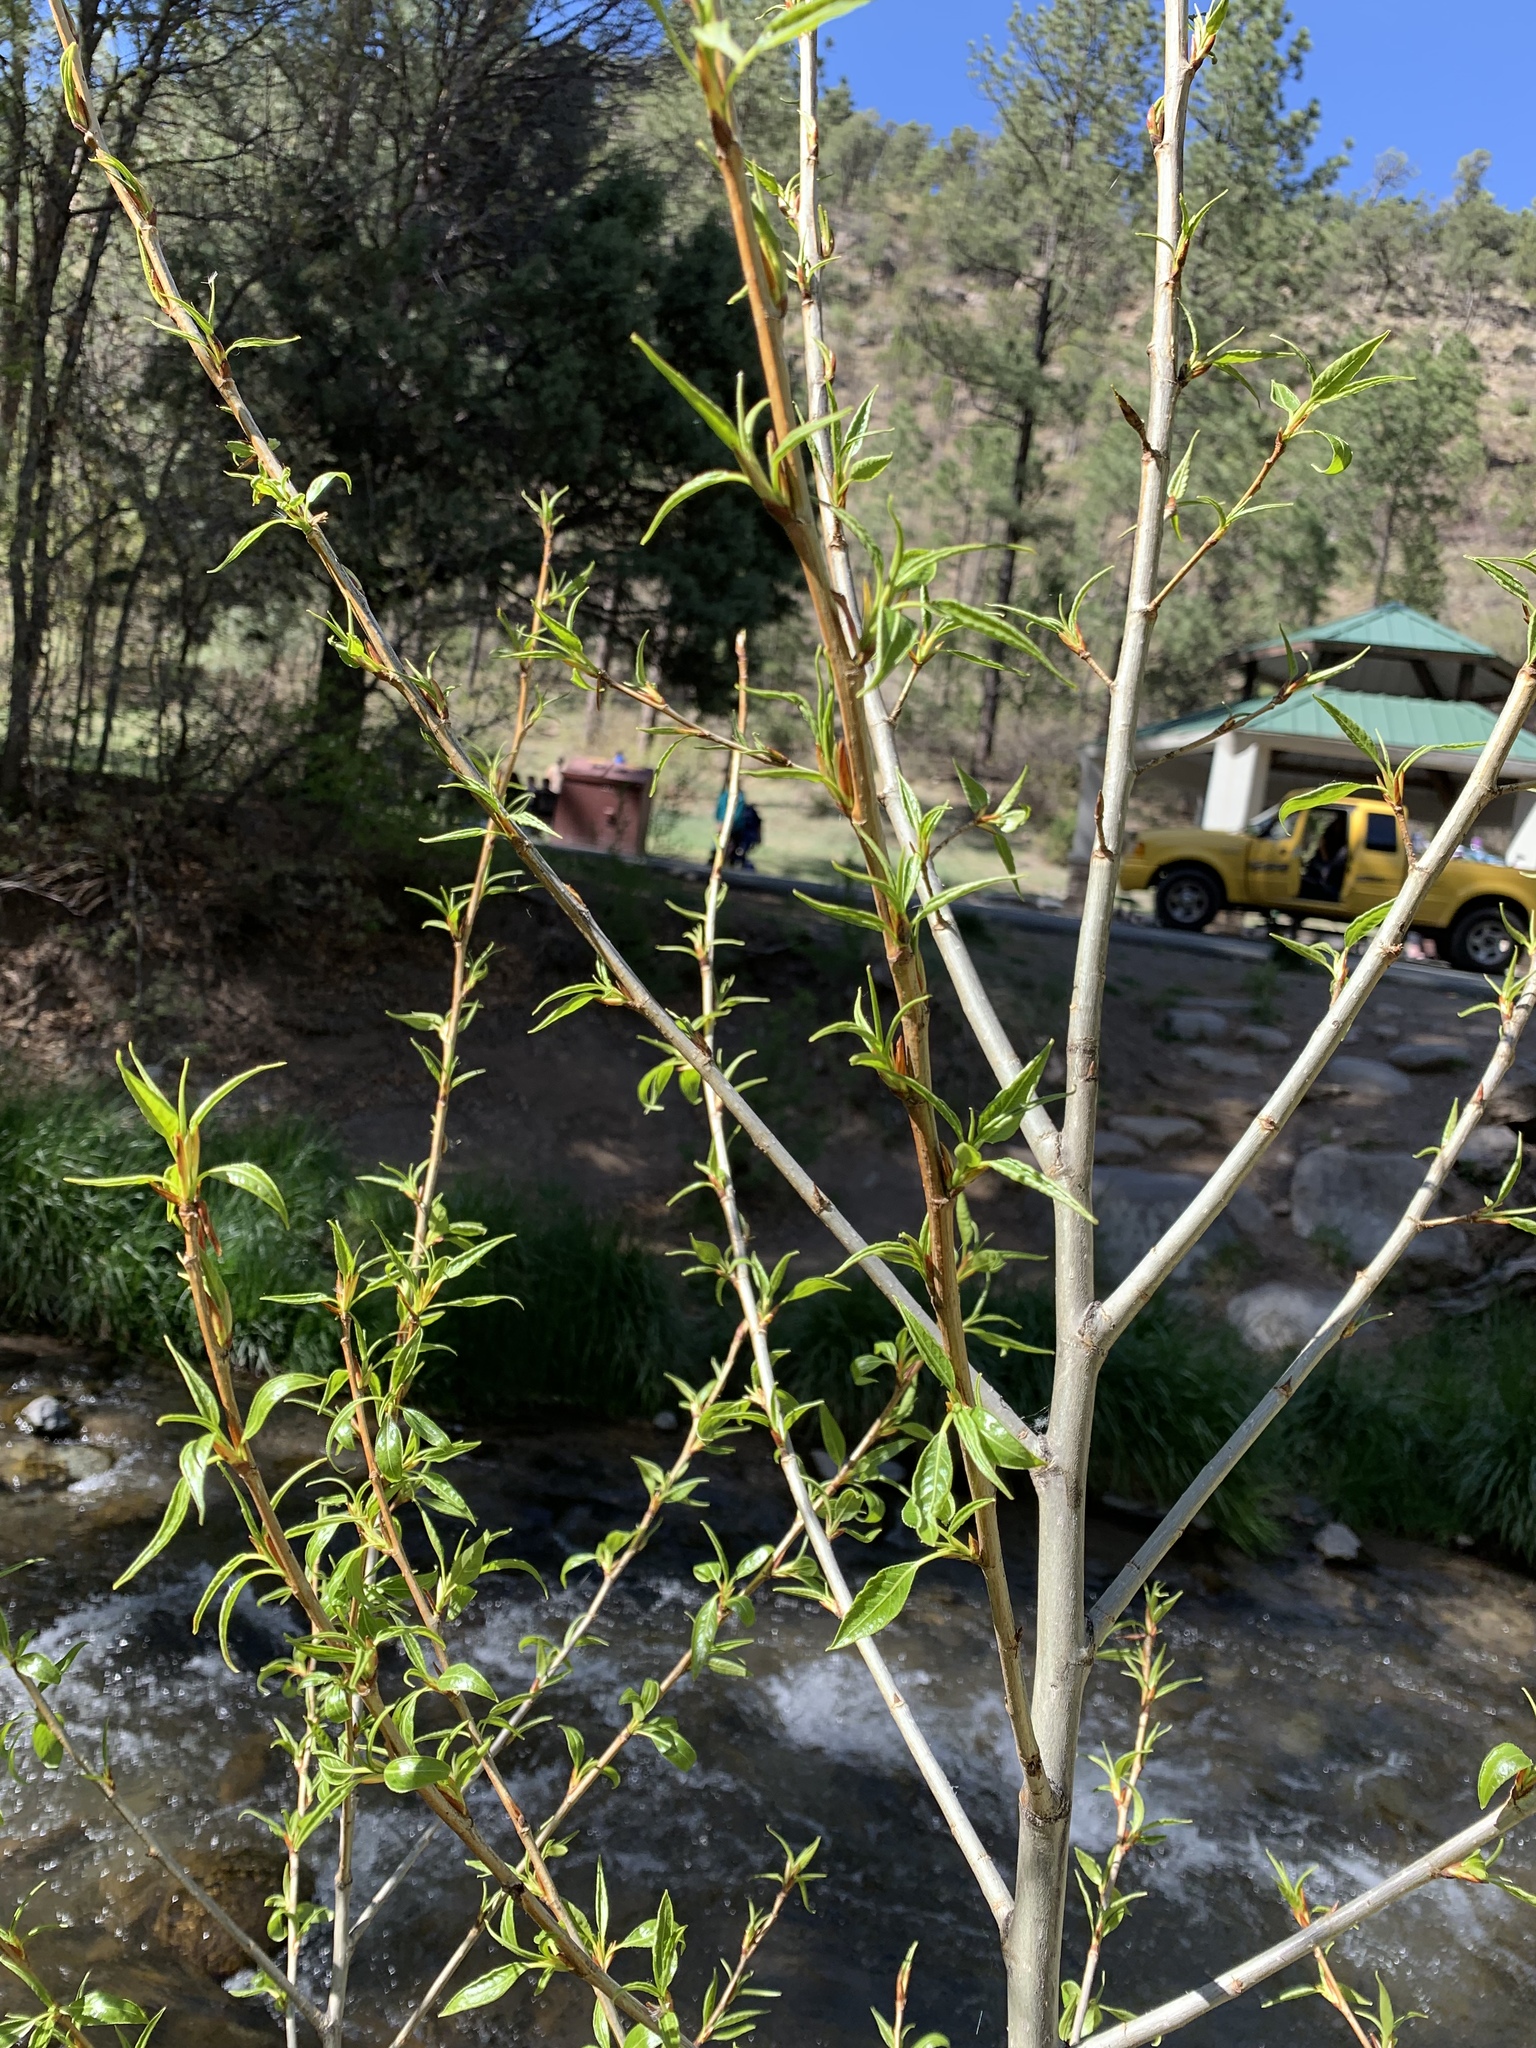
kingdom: Plantae
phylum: Tracheophyta
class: Magnoliopsida
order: Malpighiales
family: Salicaceae
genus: Populus
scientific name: Populus angustifolia
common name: Willow cottonwood
